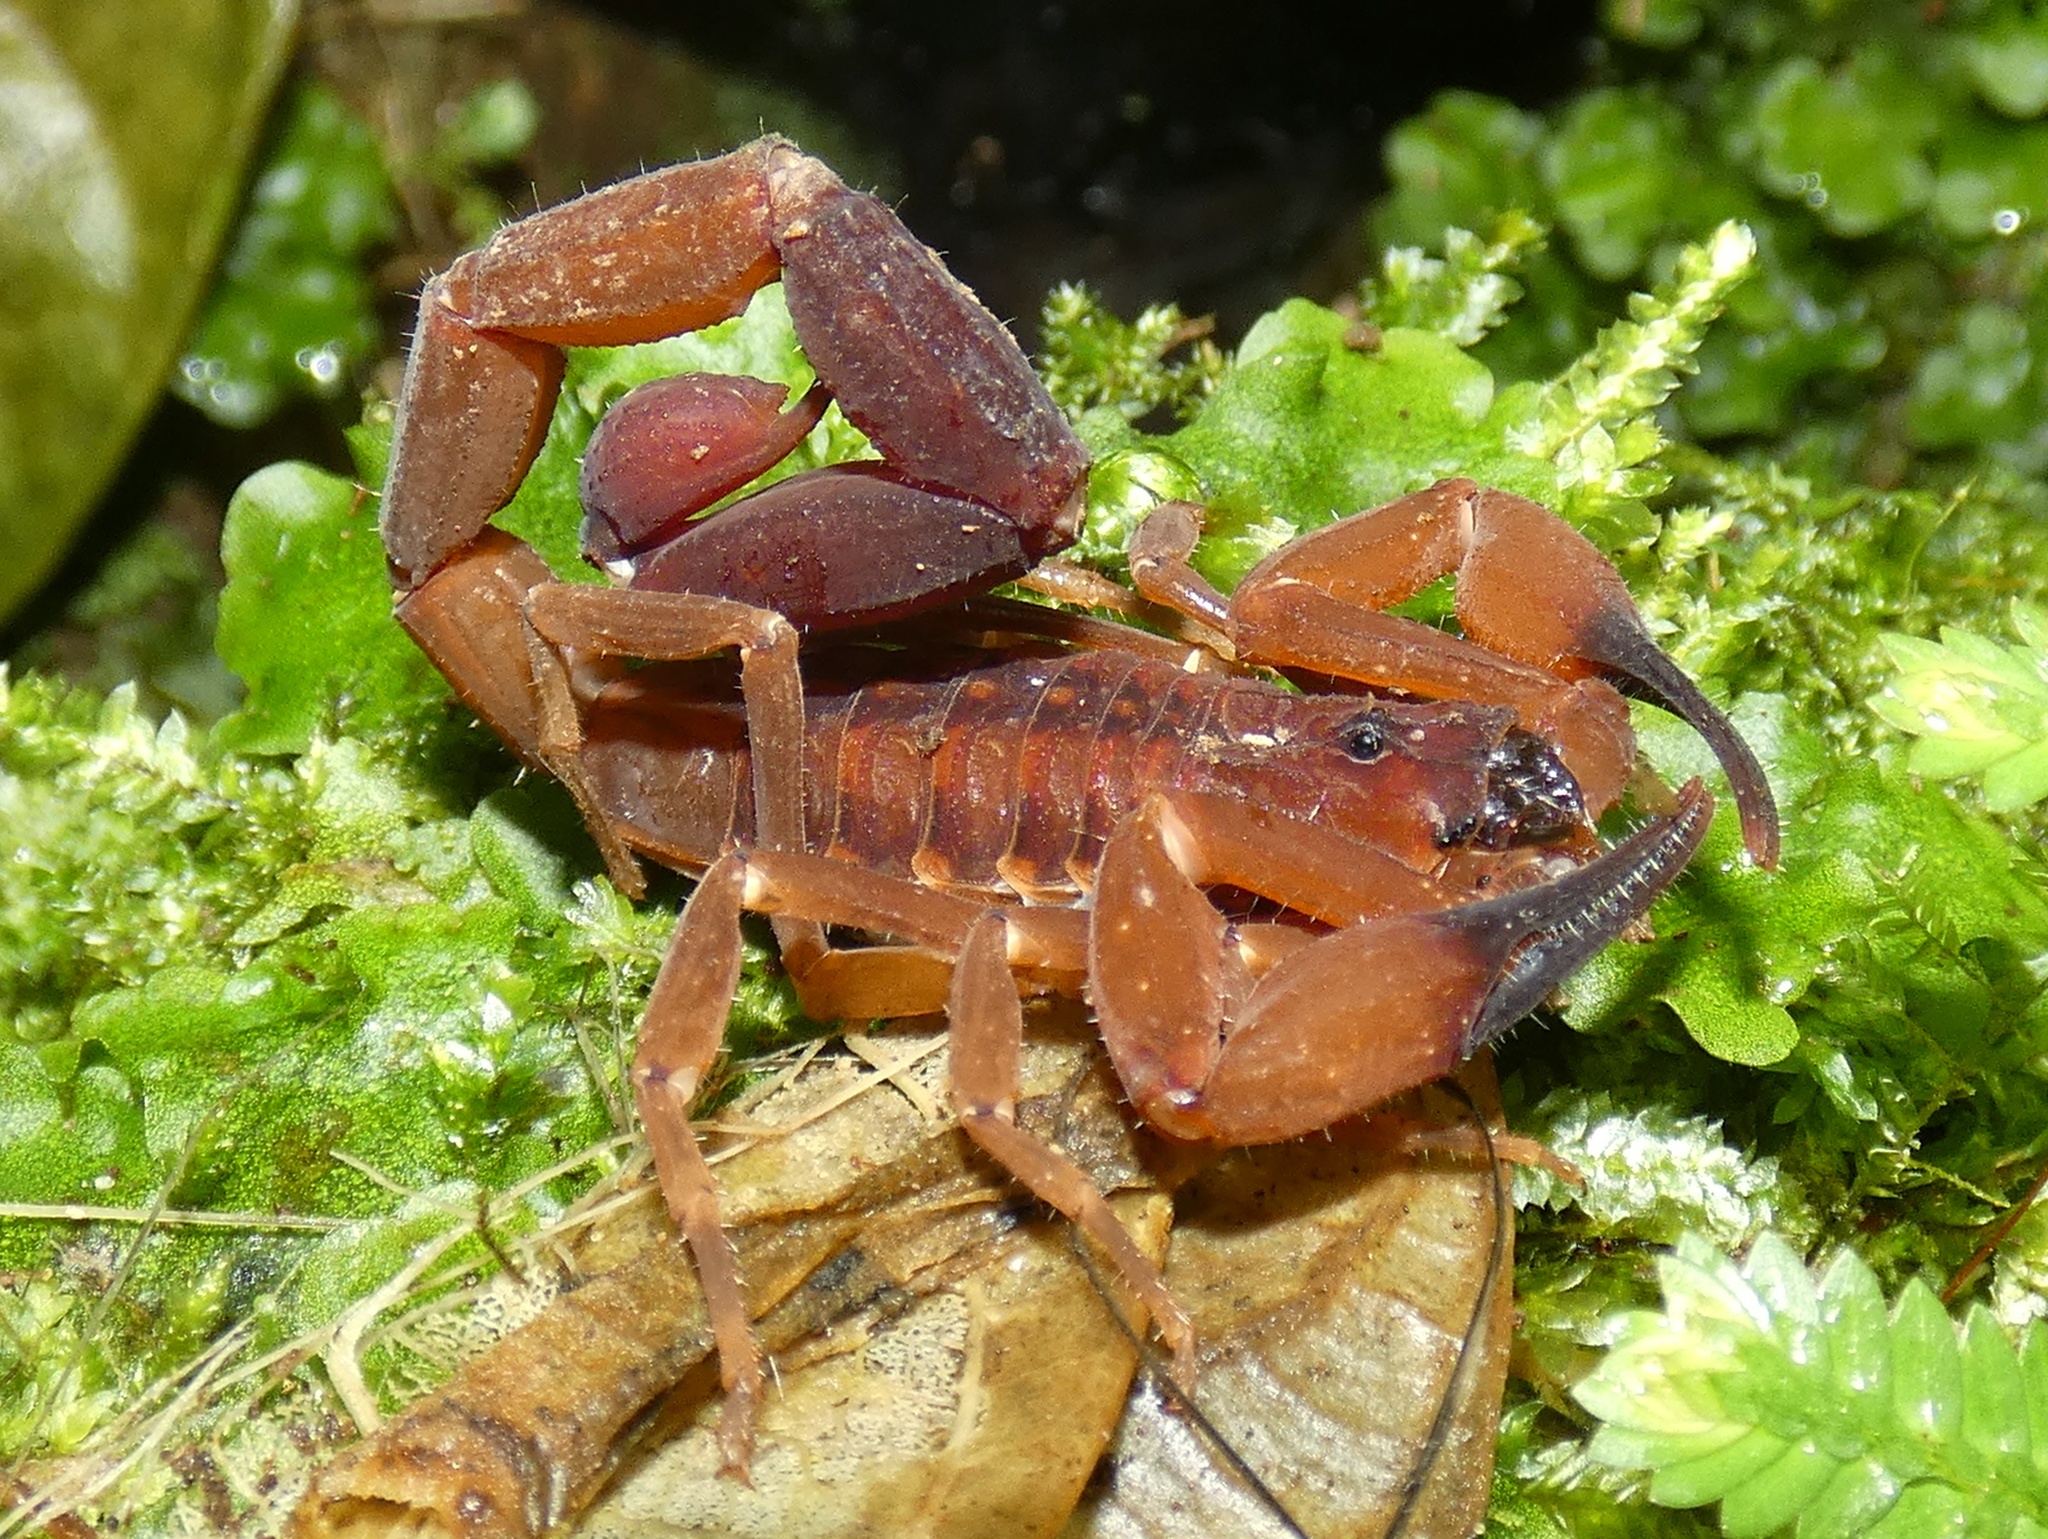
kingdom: Animalia
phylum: Arthropoda
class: Arachnida
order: Scorpiones
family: Buthidae
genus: Tityus
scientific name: Tityus cerroazul
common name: Scorpions
